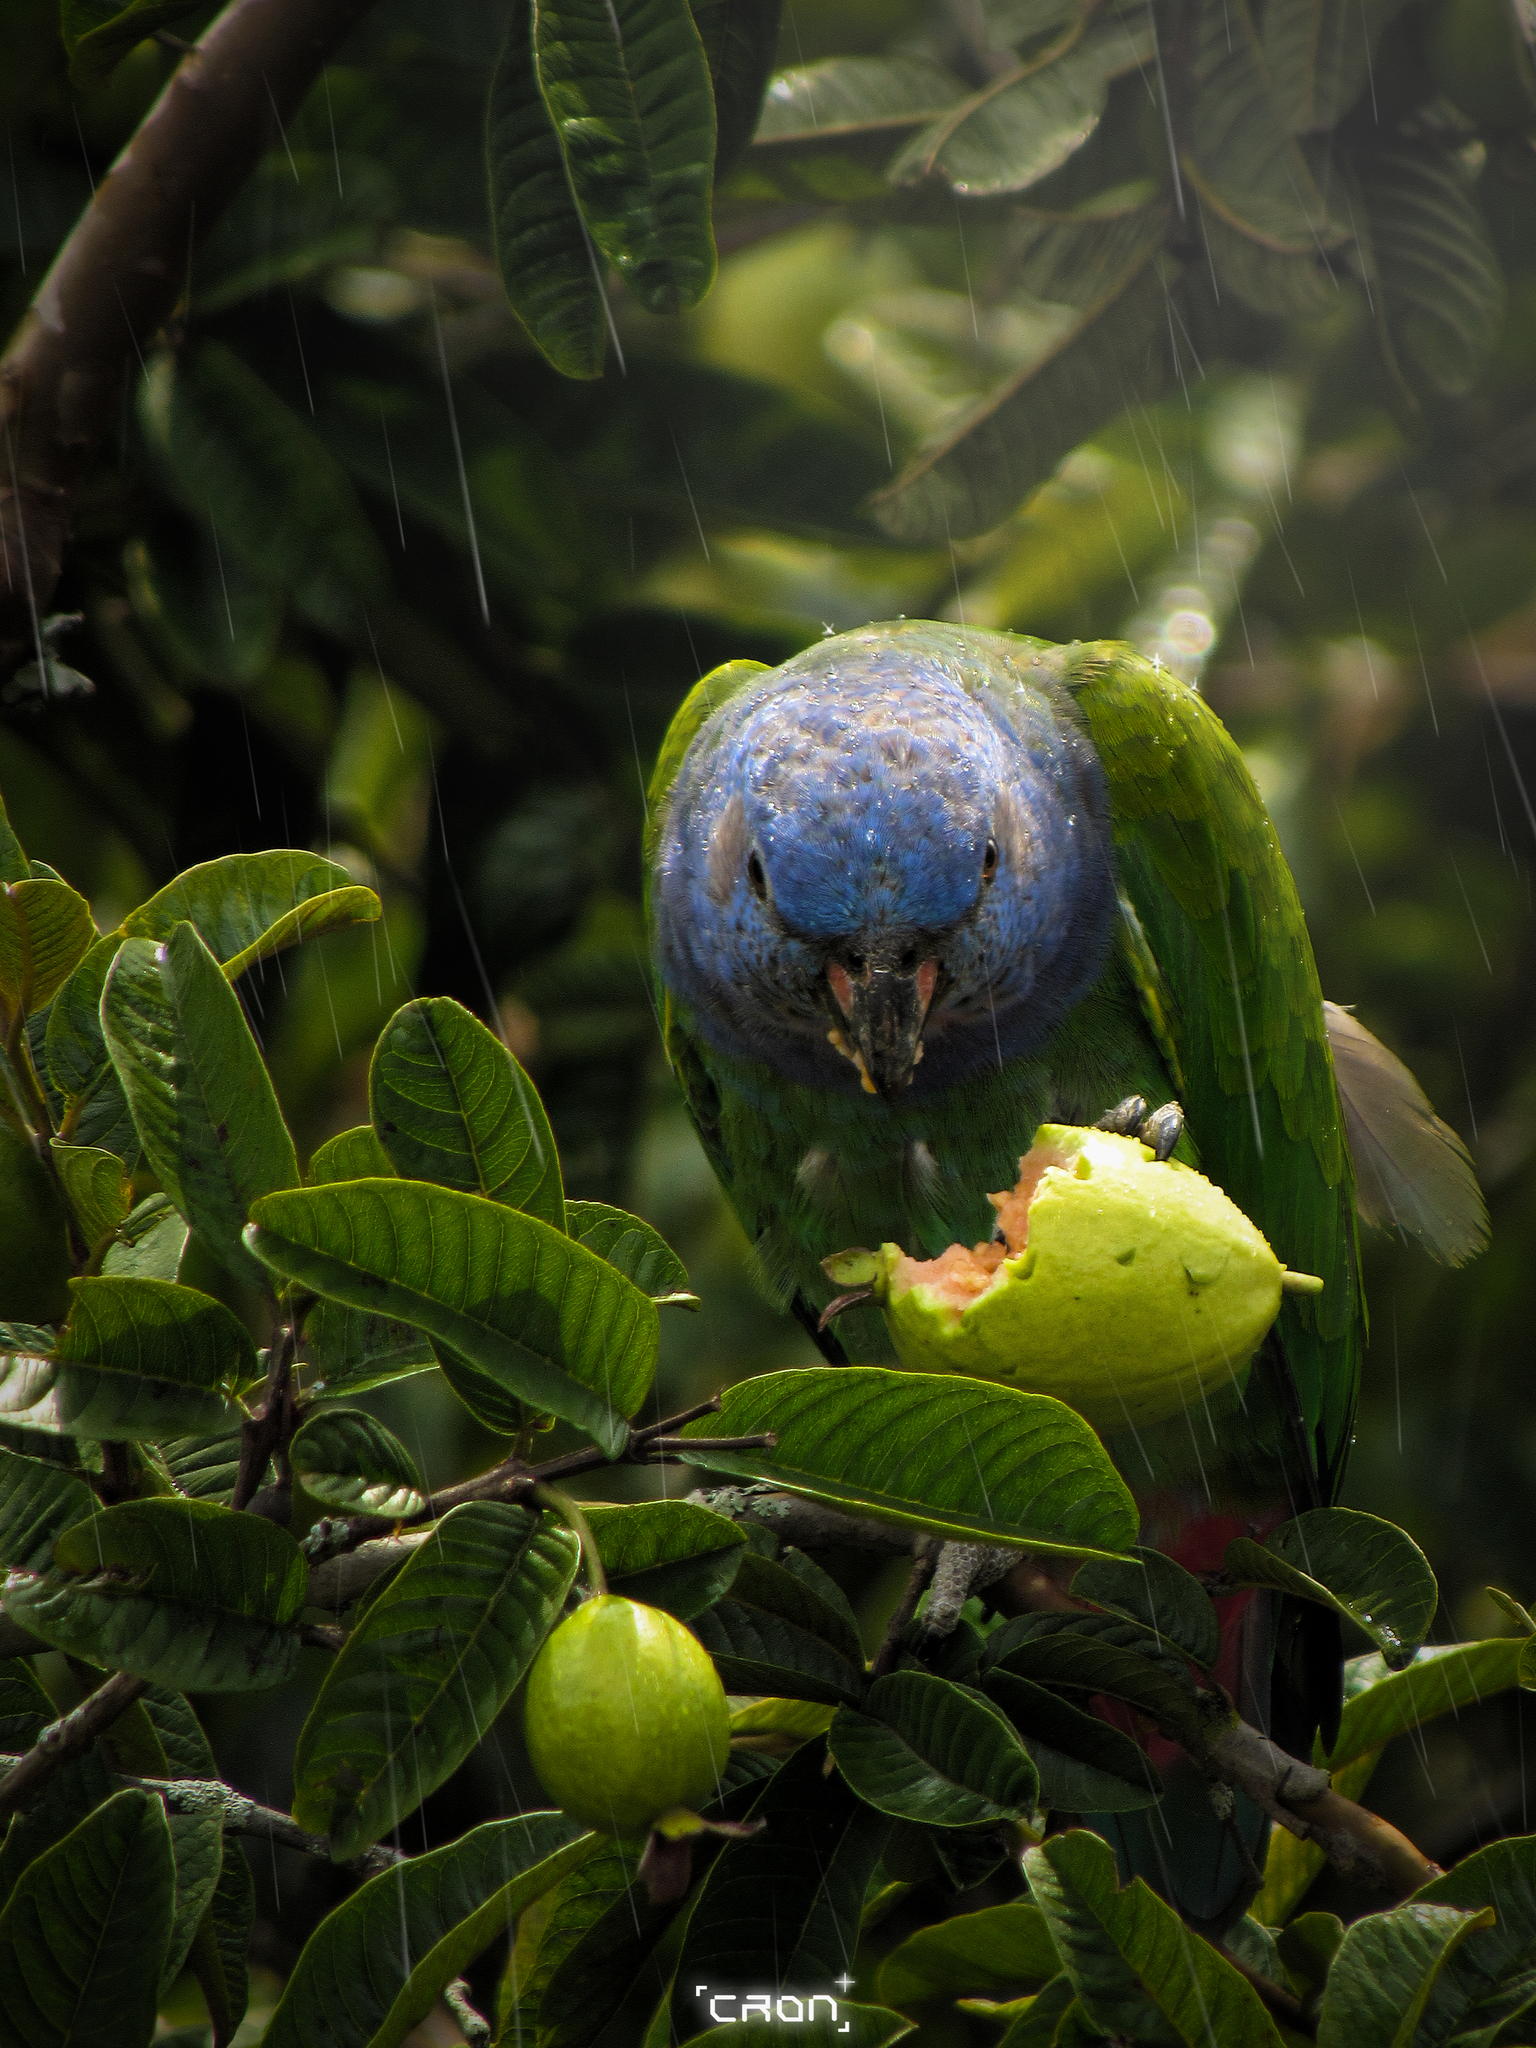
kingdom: Animalia
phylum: Chordata
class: Aves
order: Psittaciformes
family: Psittacidae
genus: Pionus
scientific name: Pionus menstruus
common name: Blue-headed parrot
